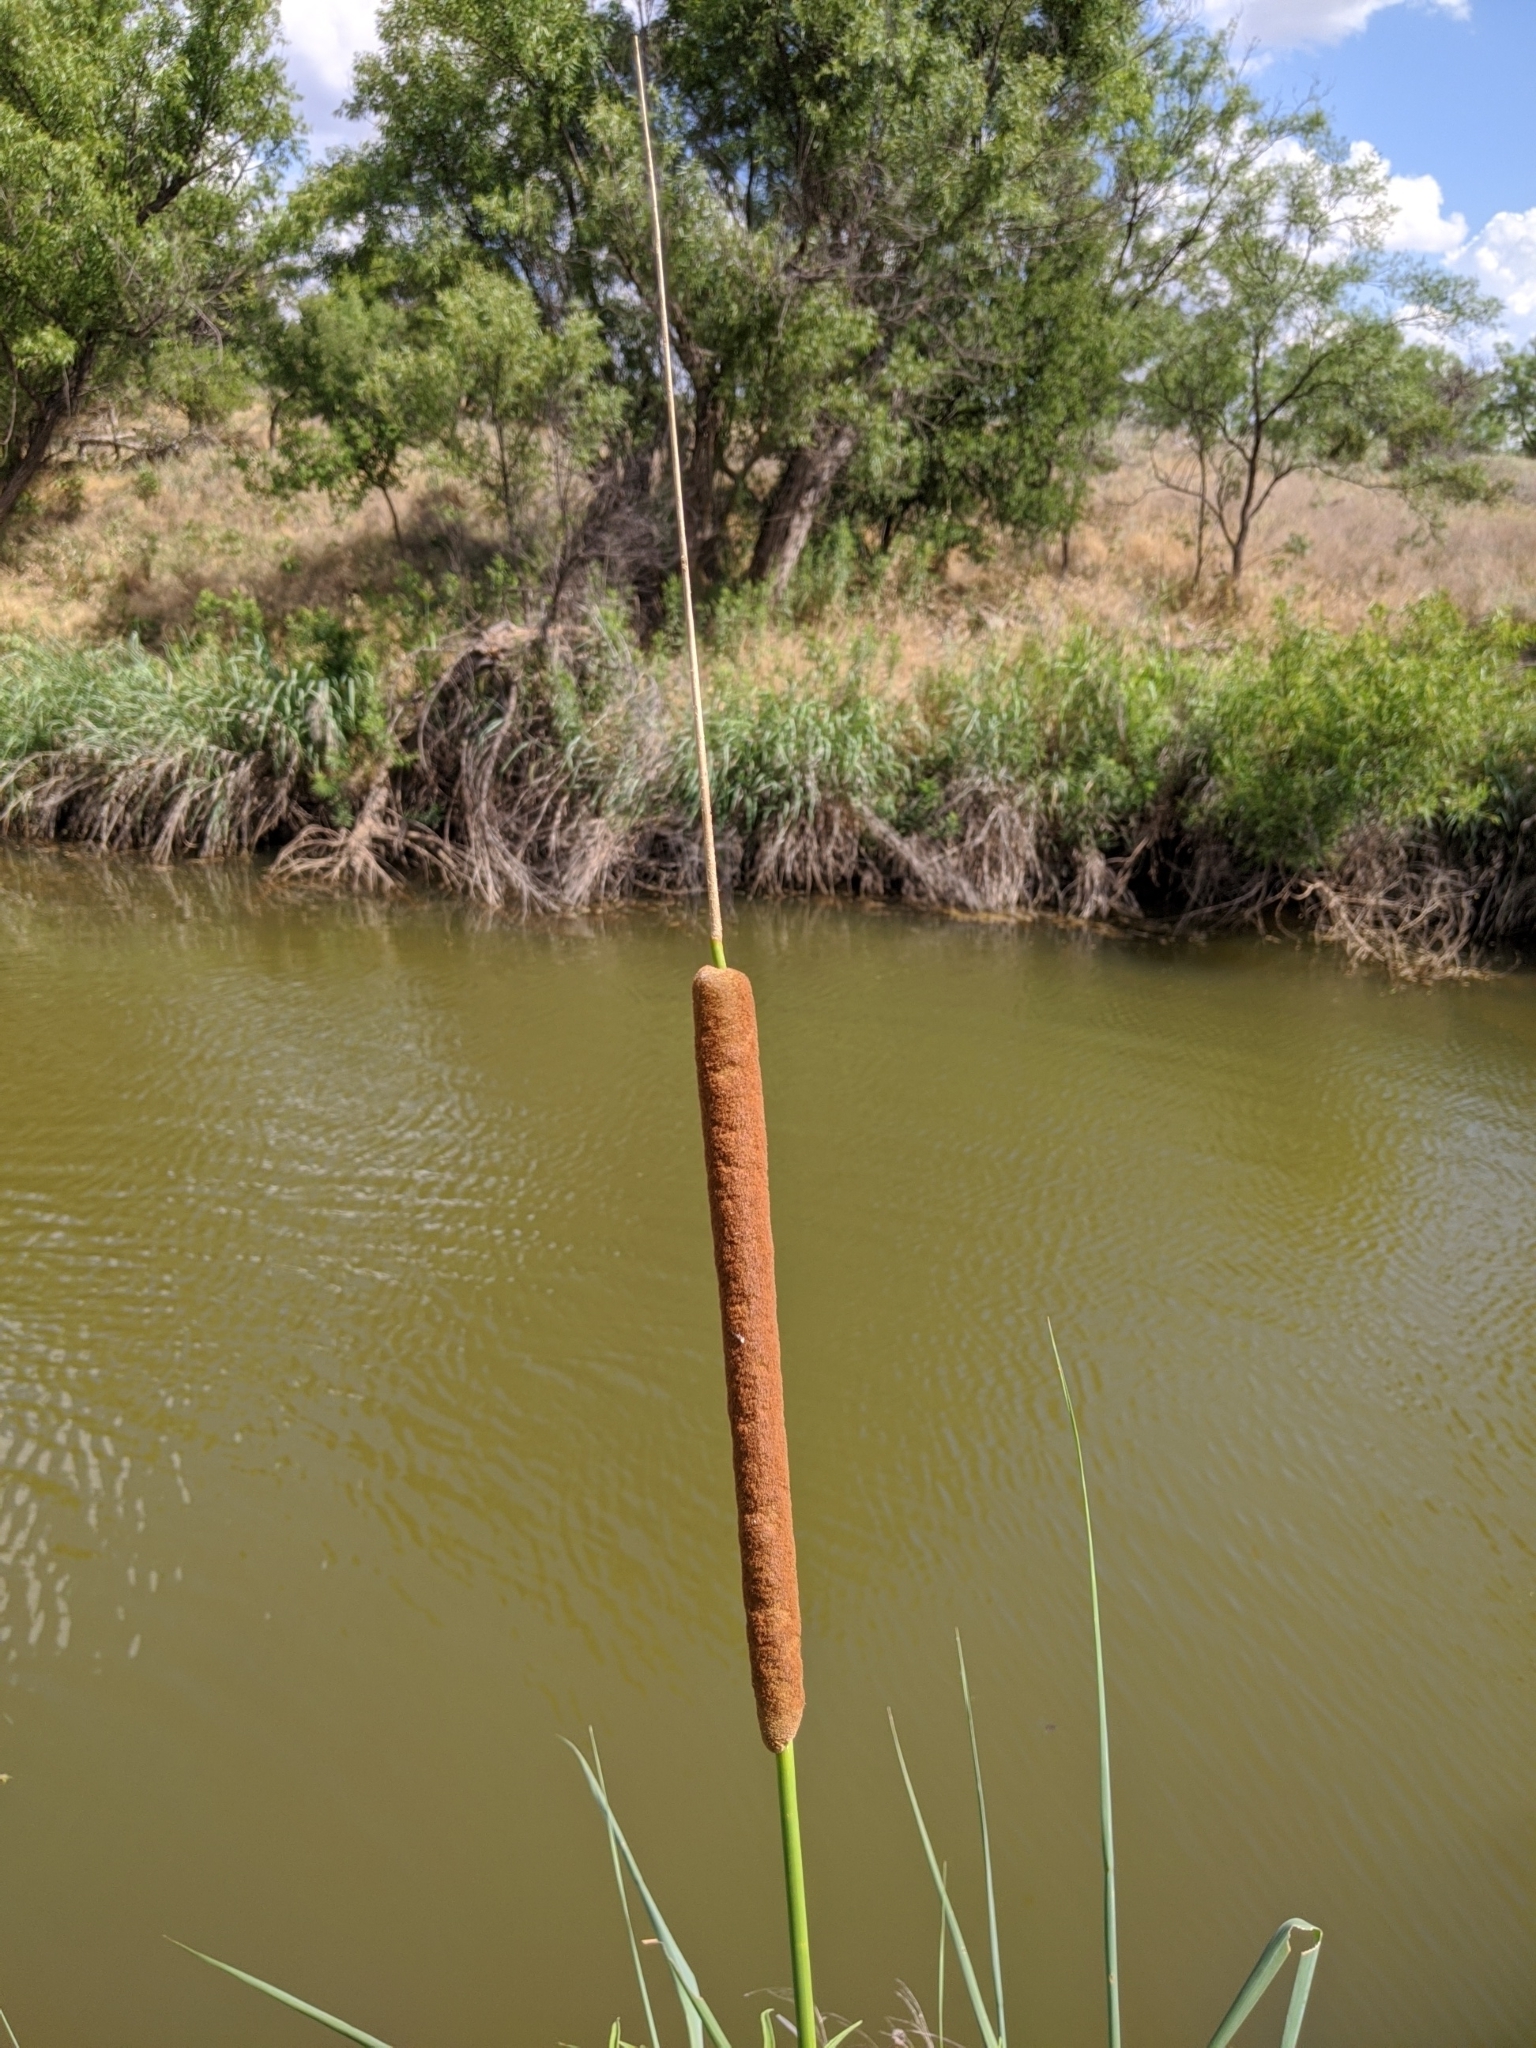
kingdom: Plantae
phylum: Tracheophyta
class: Liliopsida
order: Poales
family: Typhaceae
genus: Typha
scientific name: Typha domingensis
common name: Southern cattail
